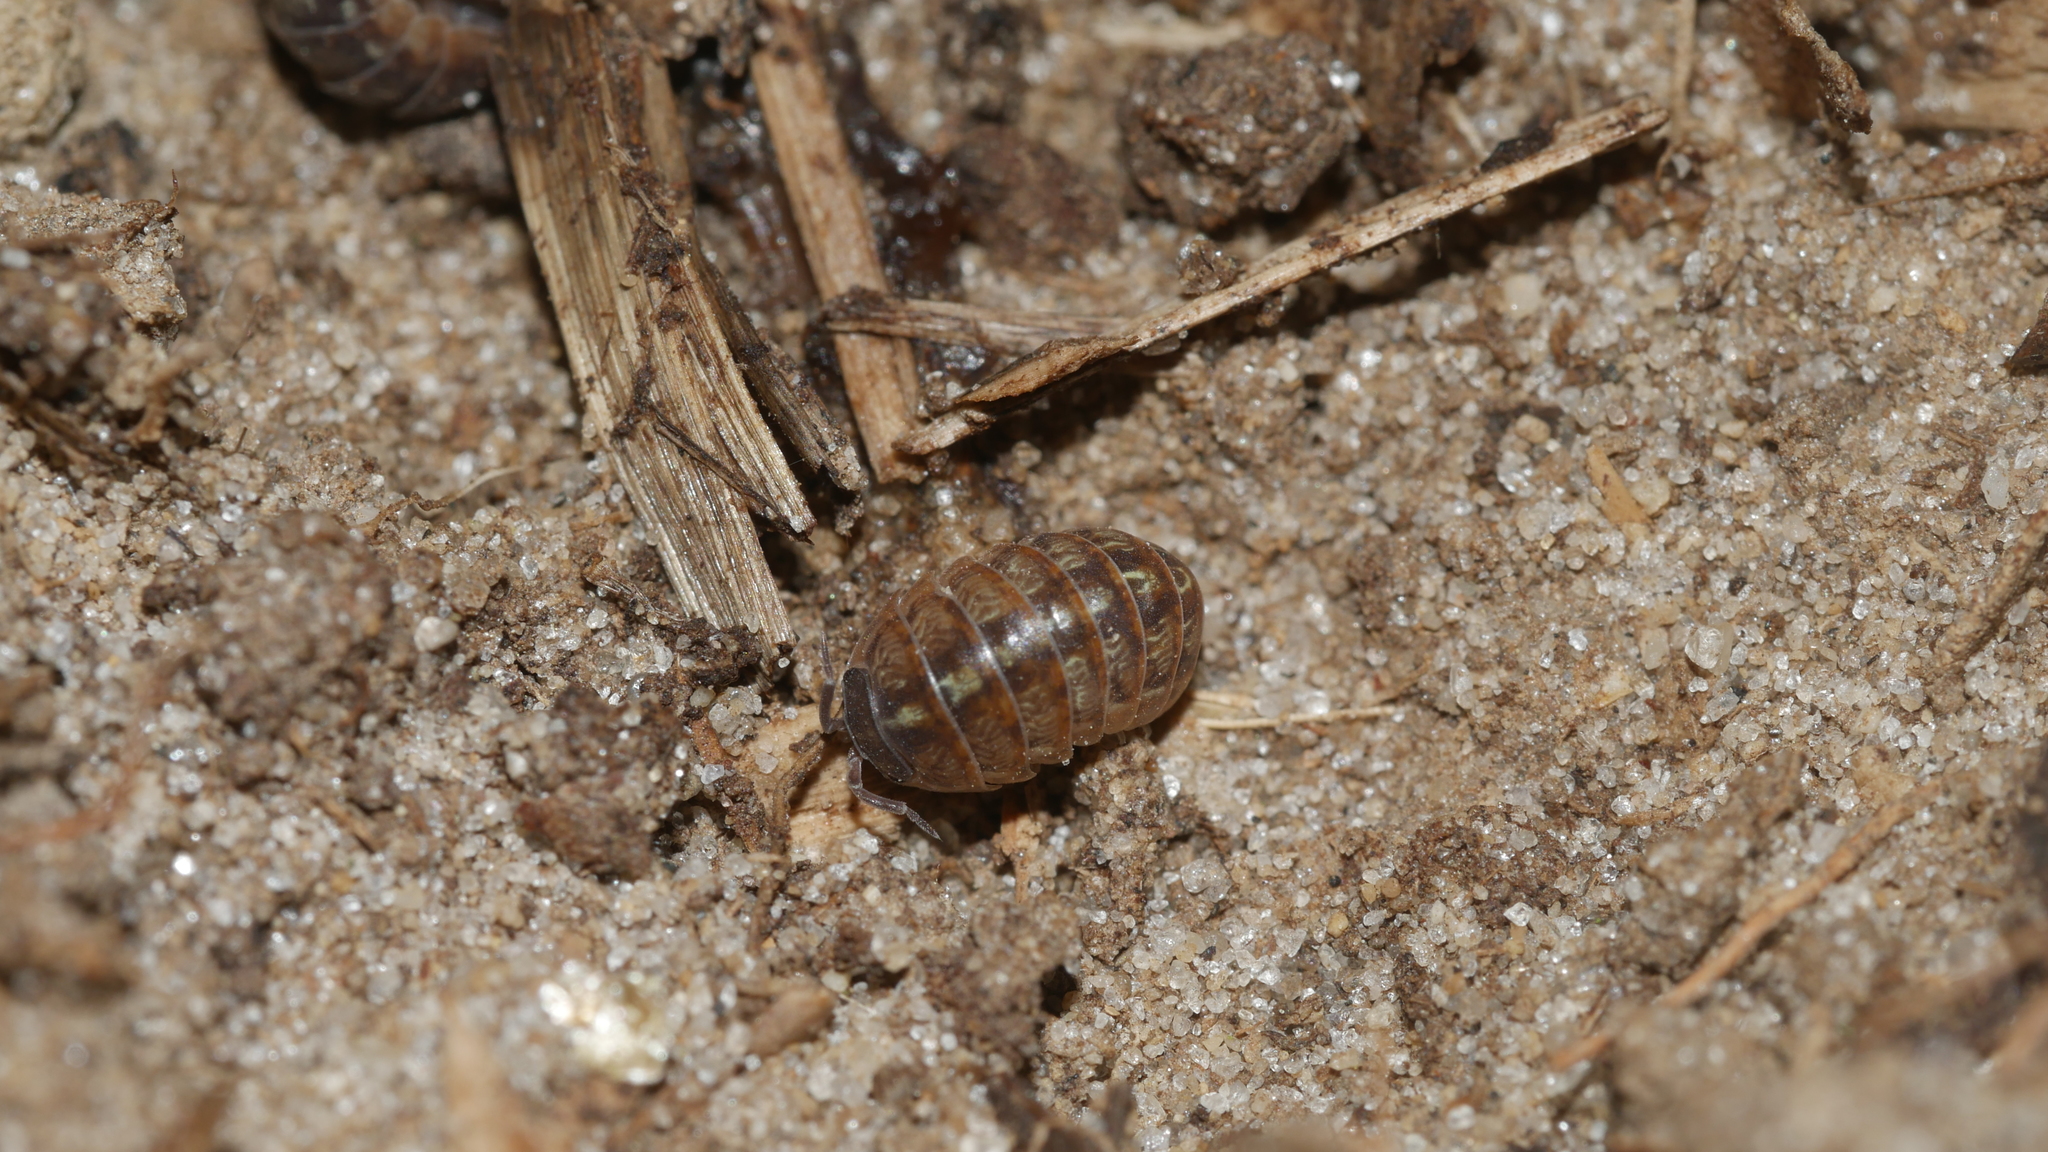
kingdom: Animalia
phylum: Arthropoda
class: Malacostraca
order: Isopoda
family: Armadillidiidae
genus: Armadillidium
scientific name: Armadillidium vulgare
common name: Common pill woodlouse
